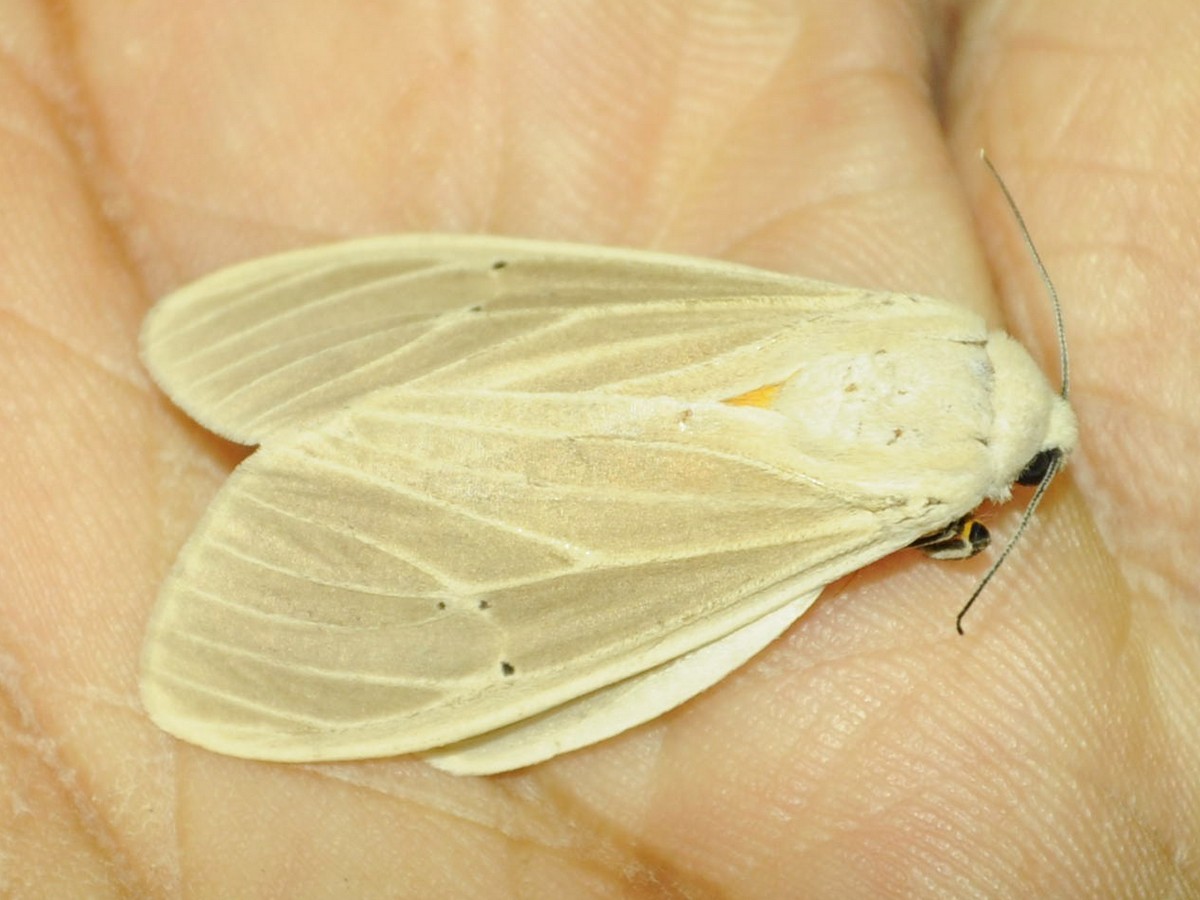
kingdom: Animalia
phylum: Arthropoda
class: Insecta
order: Lepidoptera
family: Erebidae
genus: Creatonotos
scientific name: Creatonotos transiens
